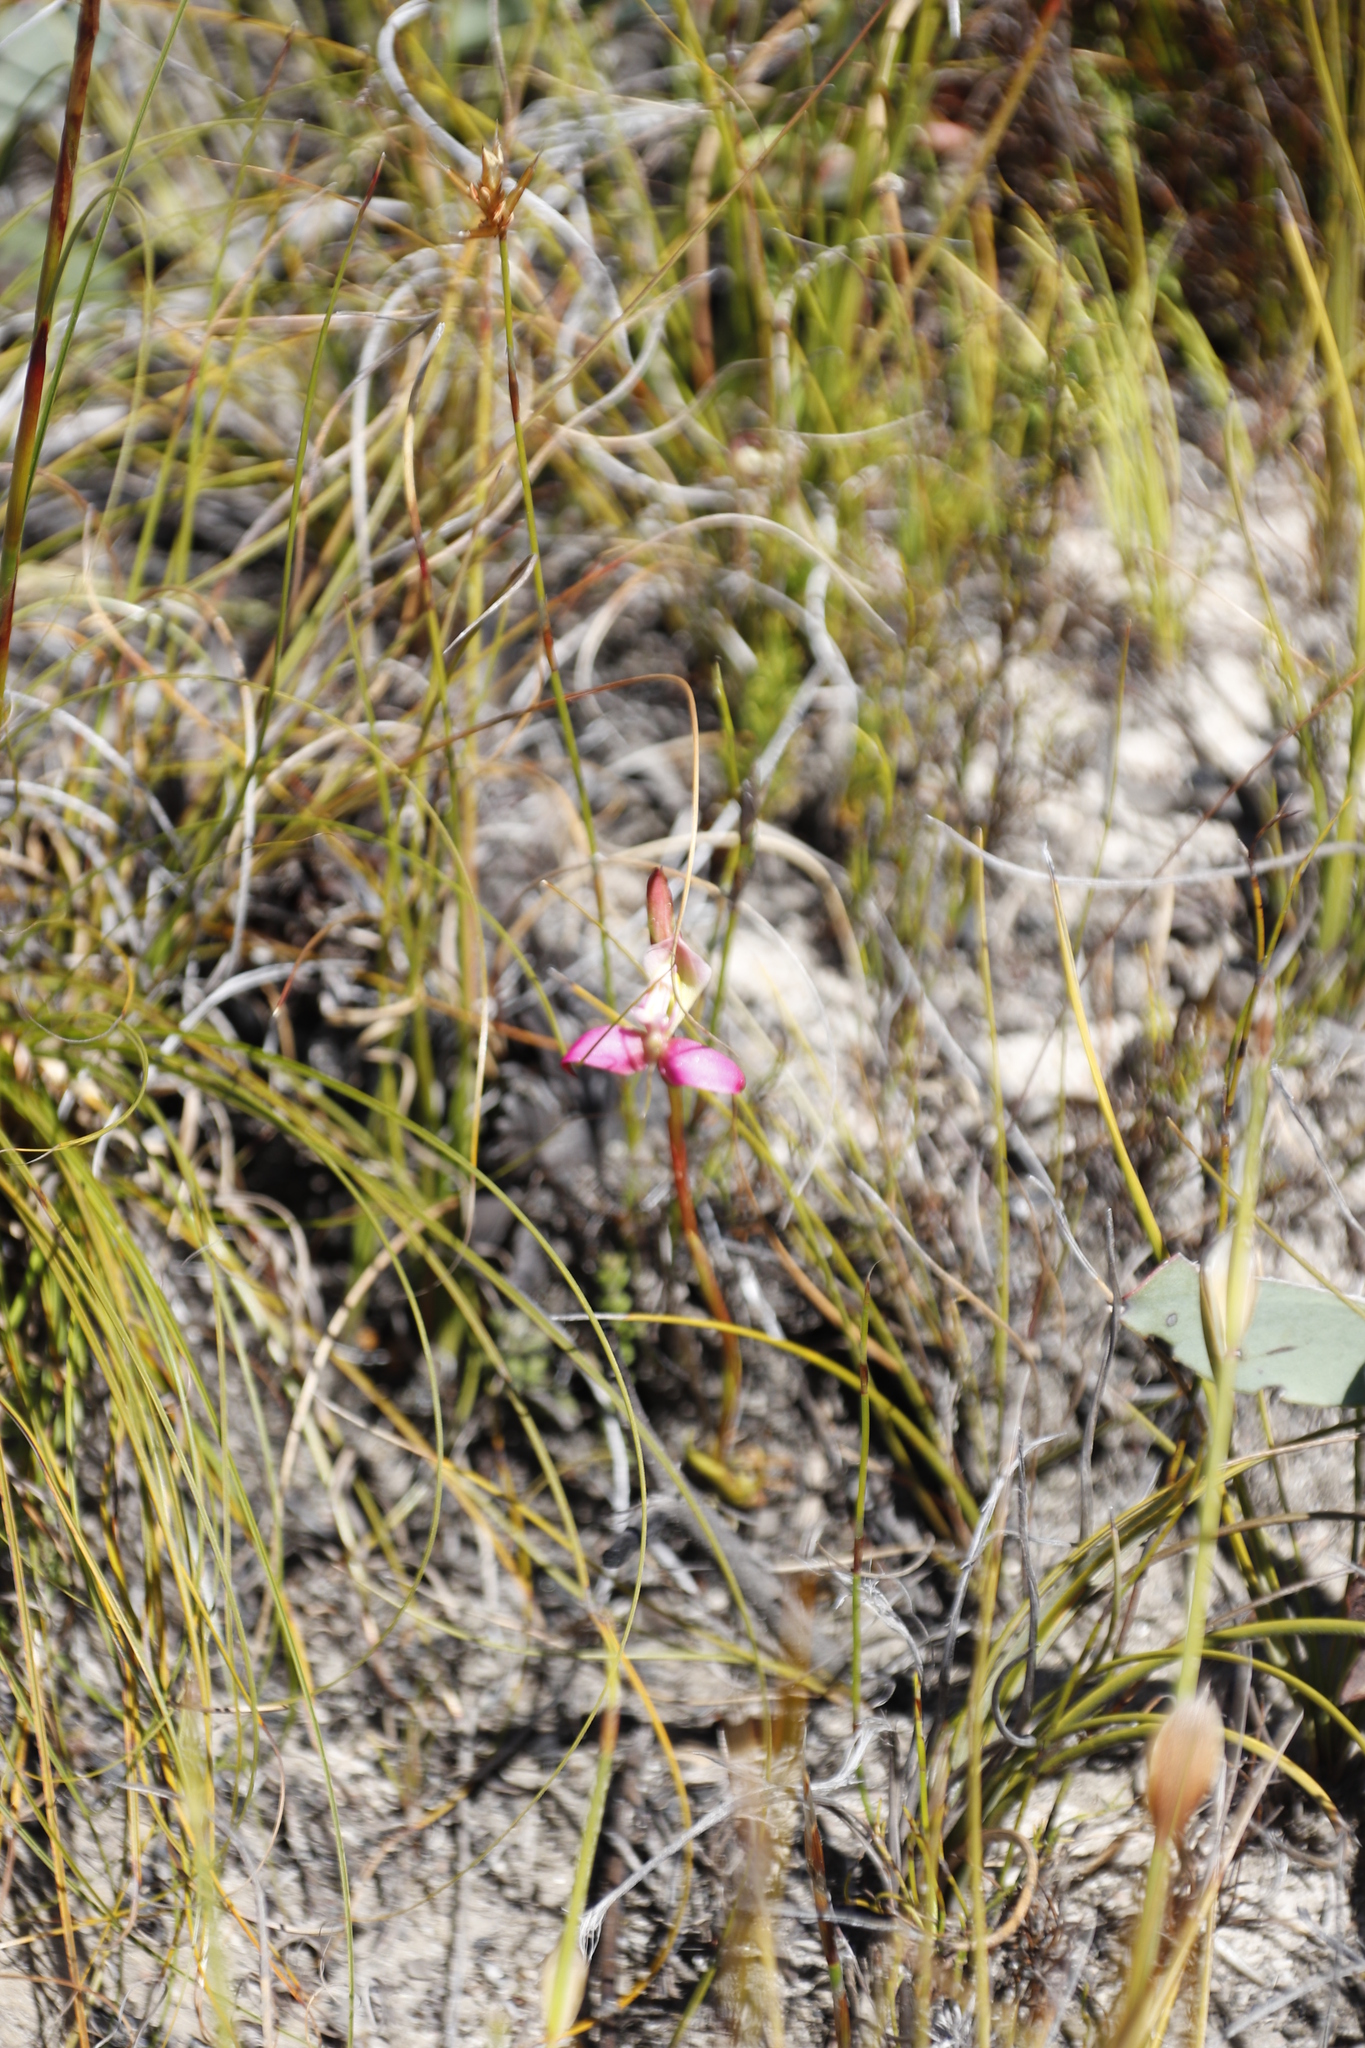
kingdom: Plantae
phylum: Tracheophyta
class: Liliopsida
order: Asparagales
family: Orchidaceae
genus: Disa
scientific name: Disa filicornis
